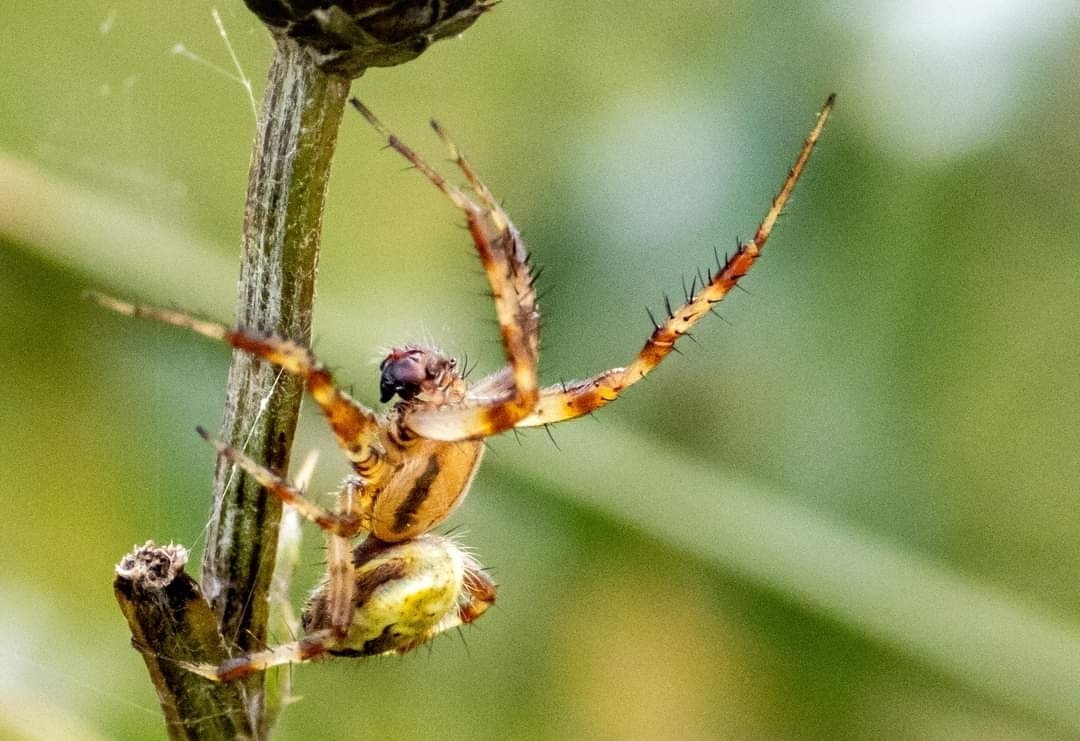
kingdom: Animalia
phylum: Arthropoda
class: Arachnida
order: Araneae
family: Araneidae
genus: Araneus
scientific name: Araneus quadratus
